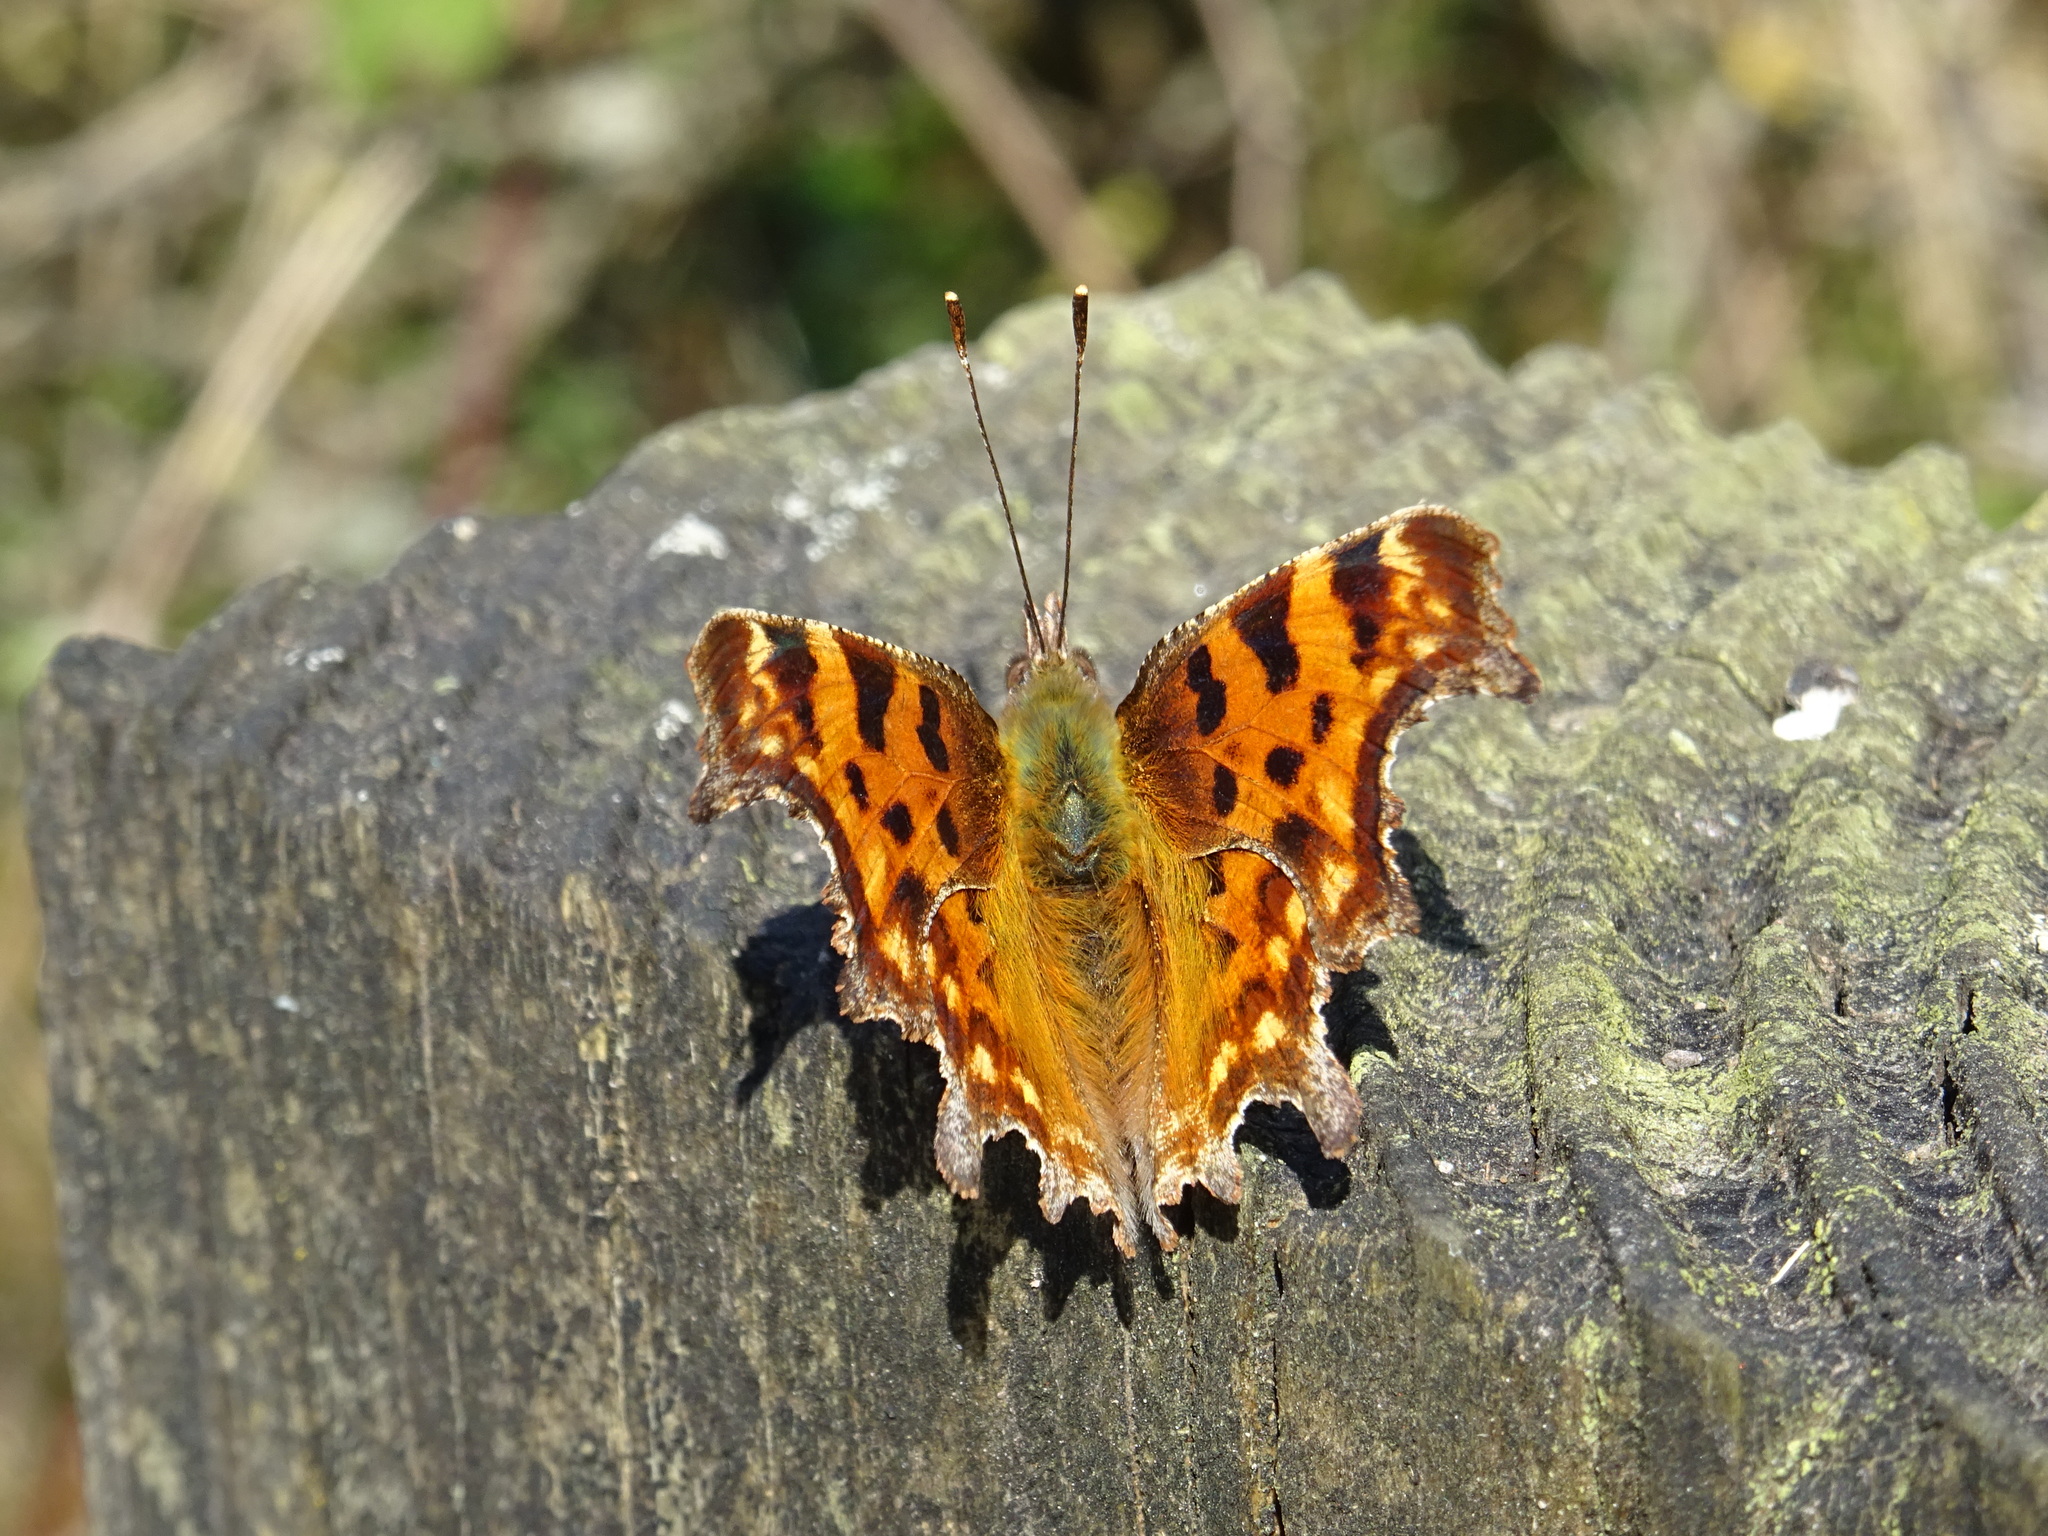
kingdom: Animalia
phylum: Arthropoda
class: Insecta
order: Lepidoptera
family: Nymphalidae
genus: Polygonia
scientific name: Polygonia c-album
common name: Comma
